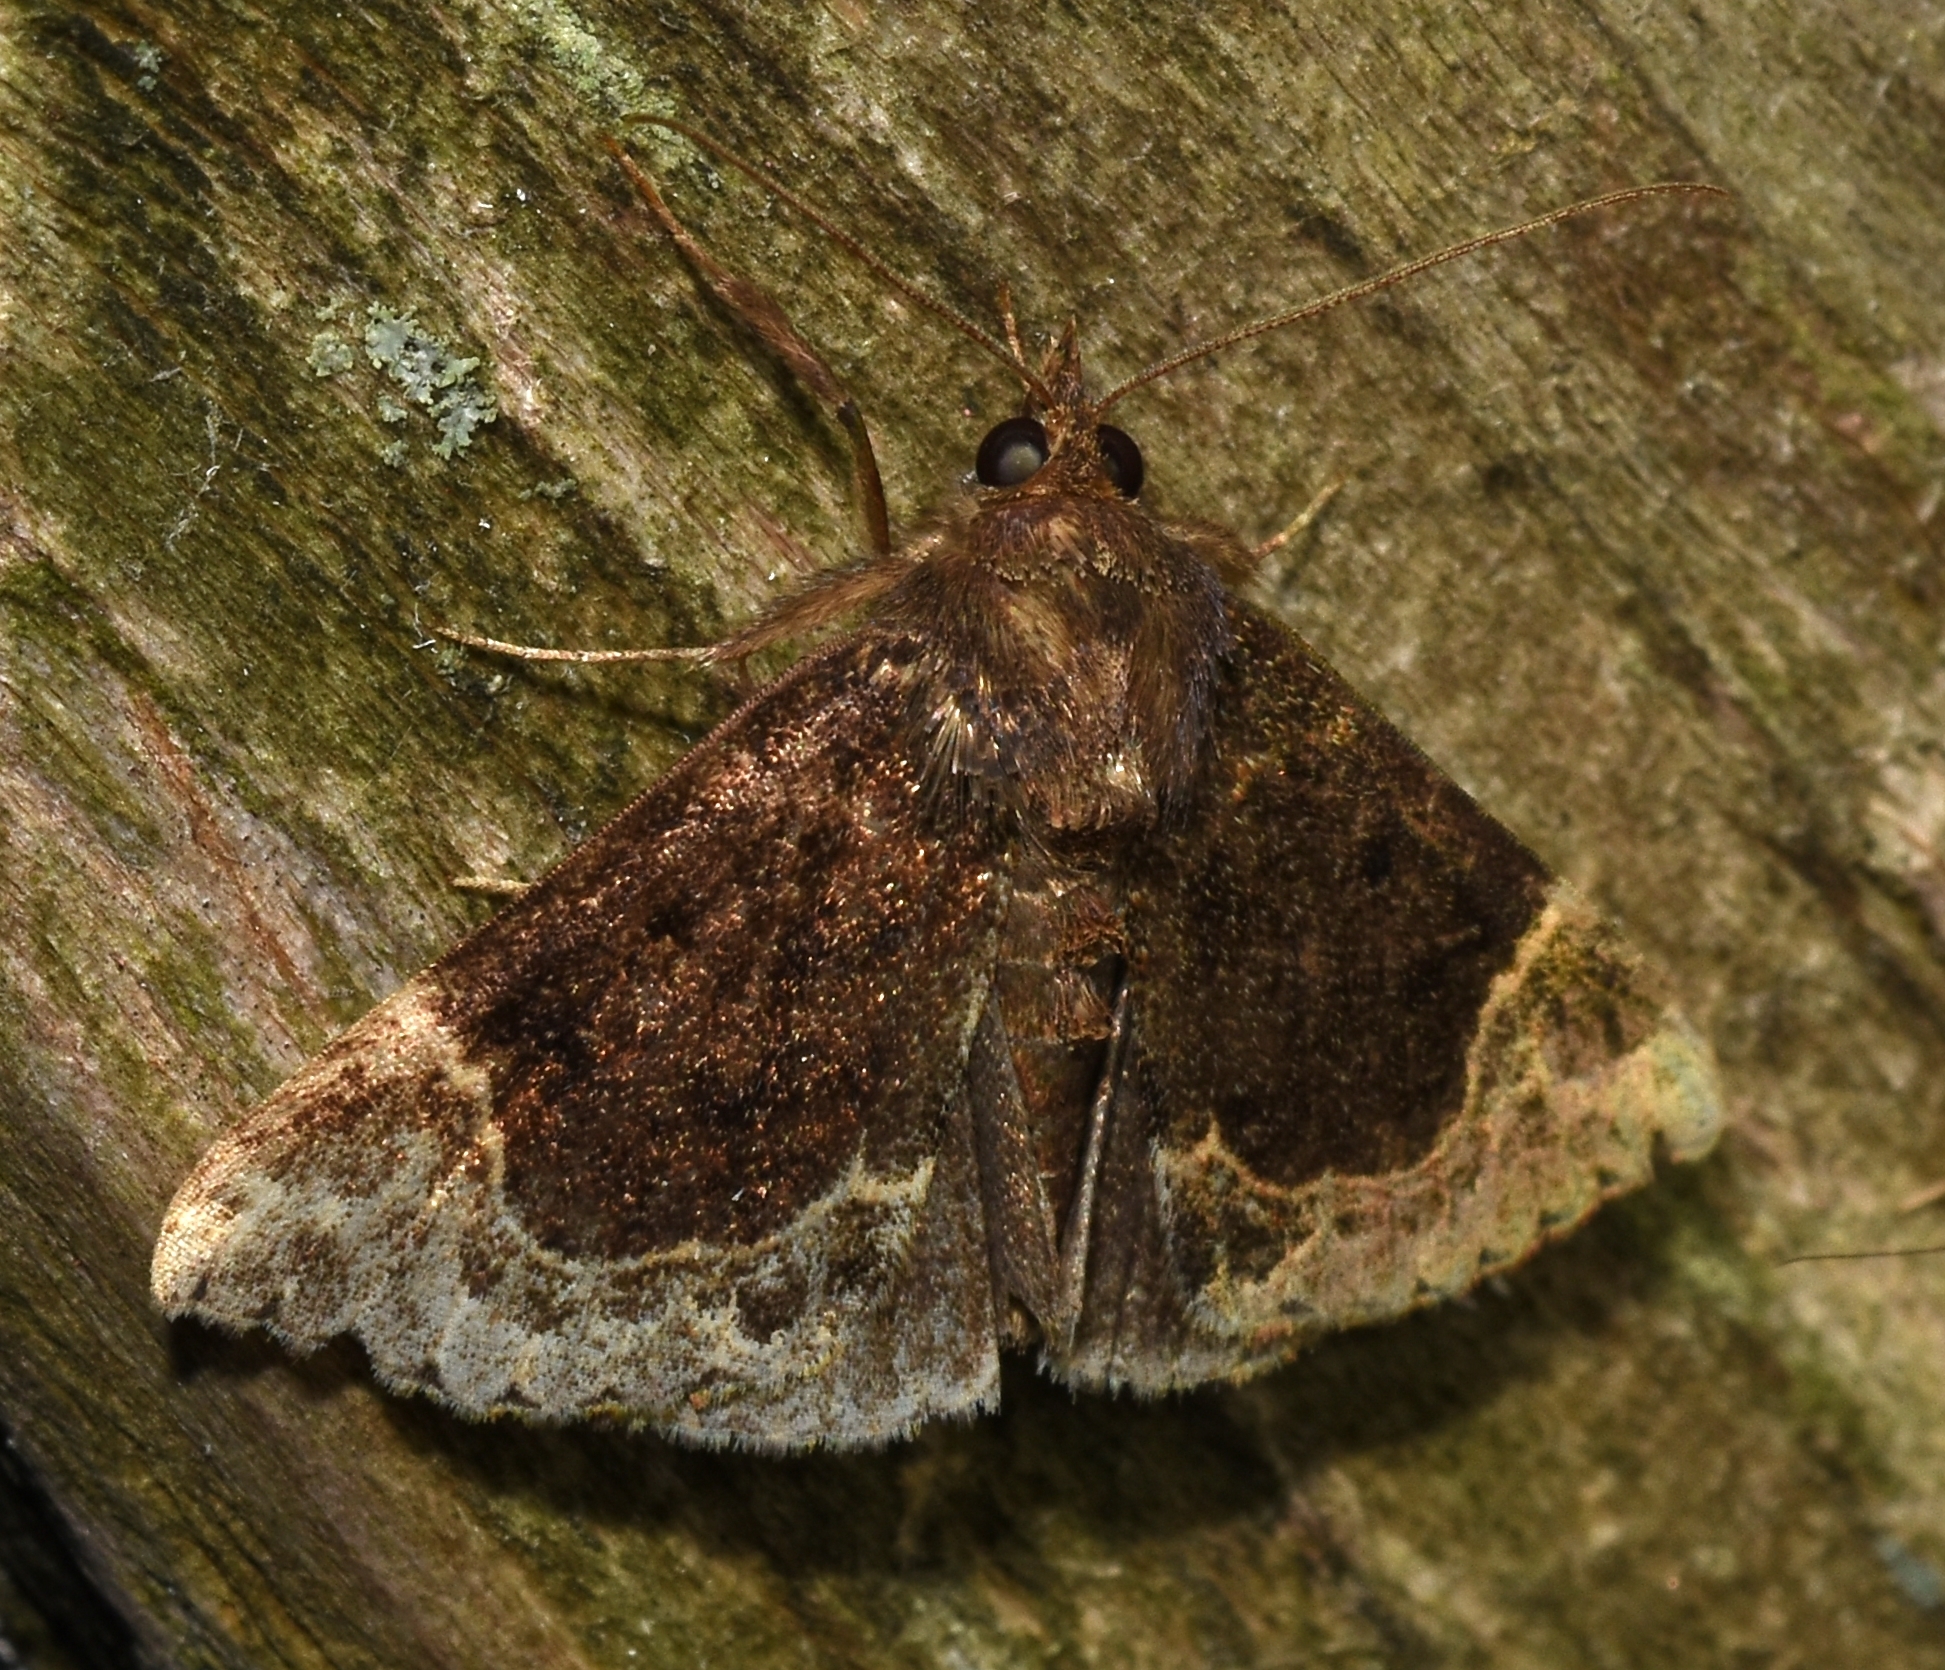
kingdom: Animalia
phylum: Arthropoda
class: Insecta
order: Lepidoptera
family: Erebidae
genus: Hypena
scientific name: Hypena abalienalis
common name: White-lined snout
